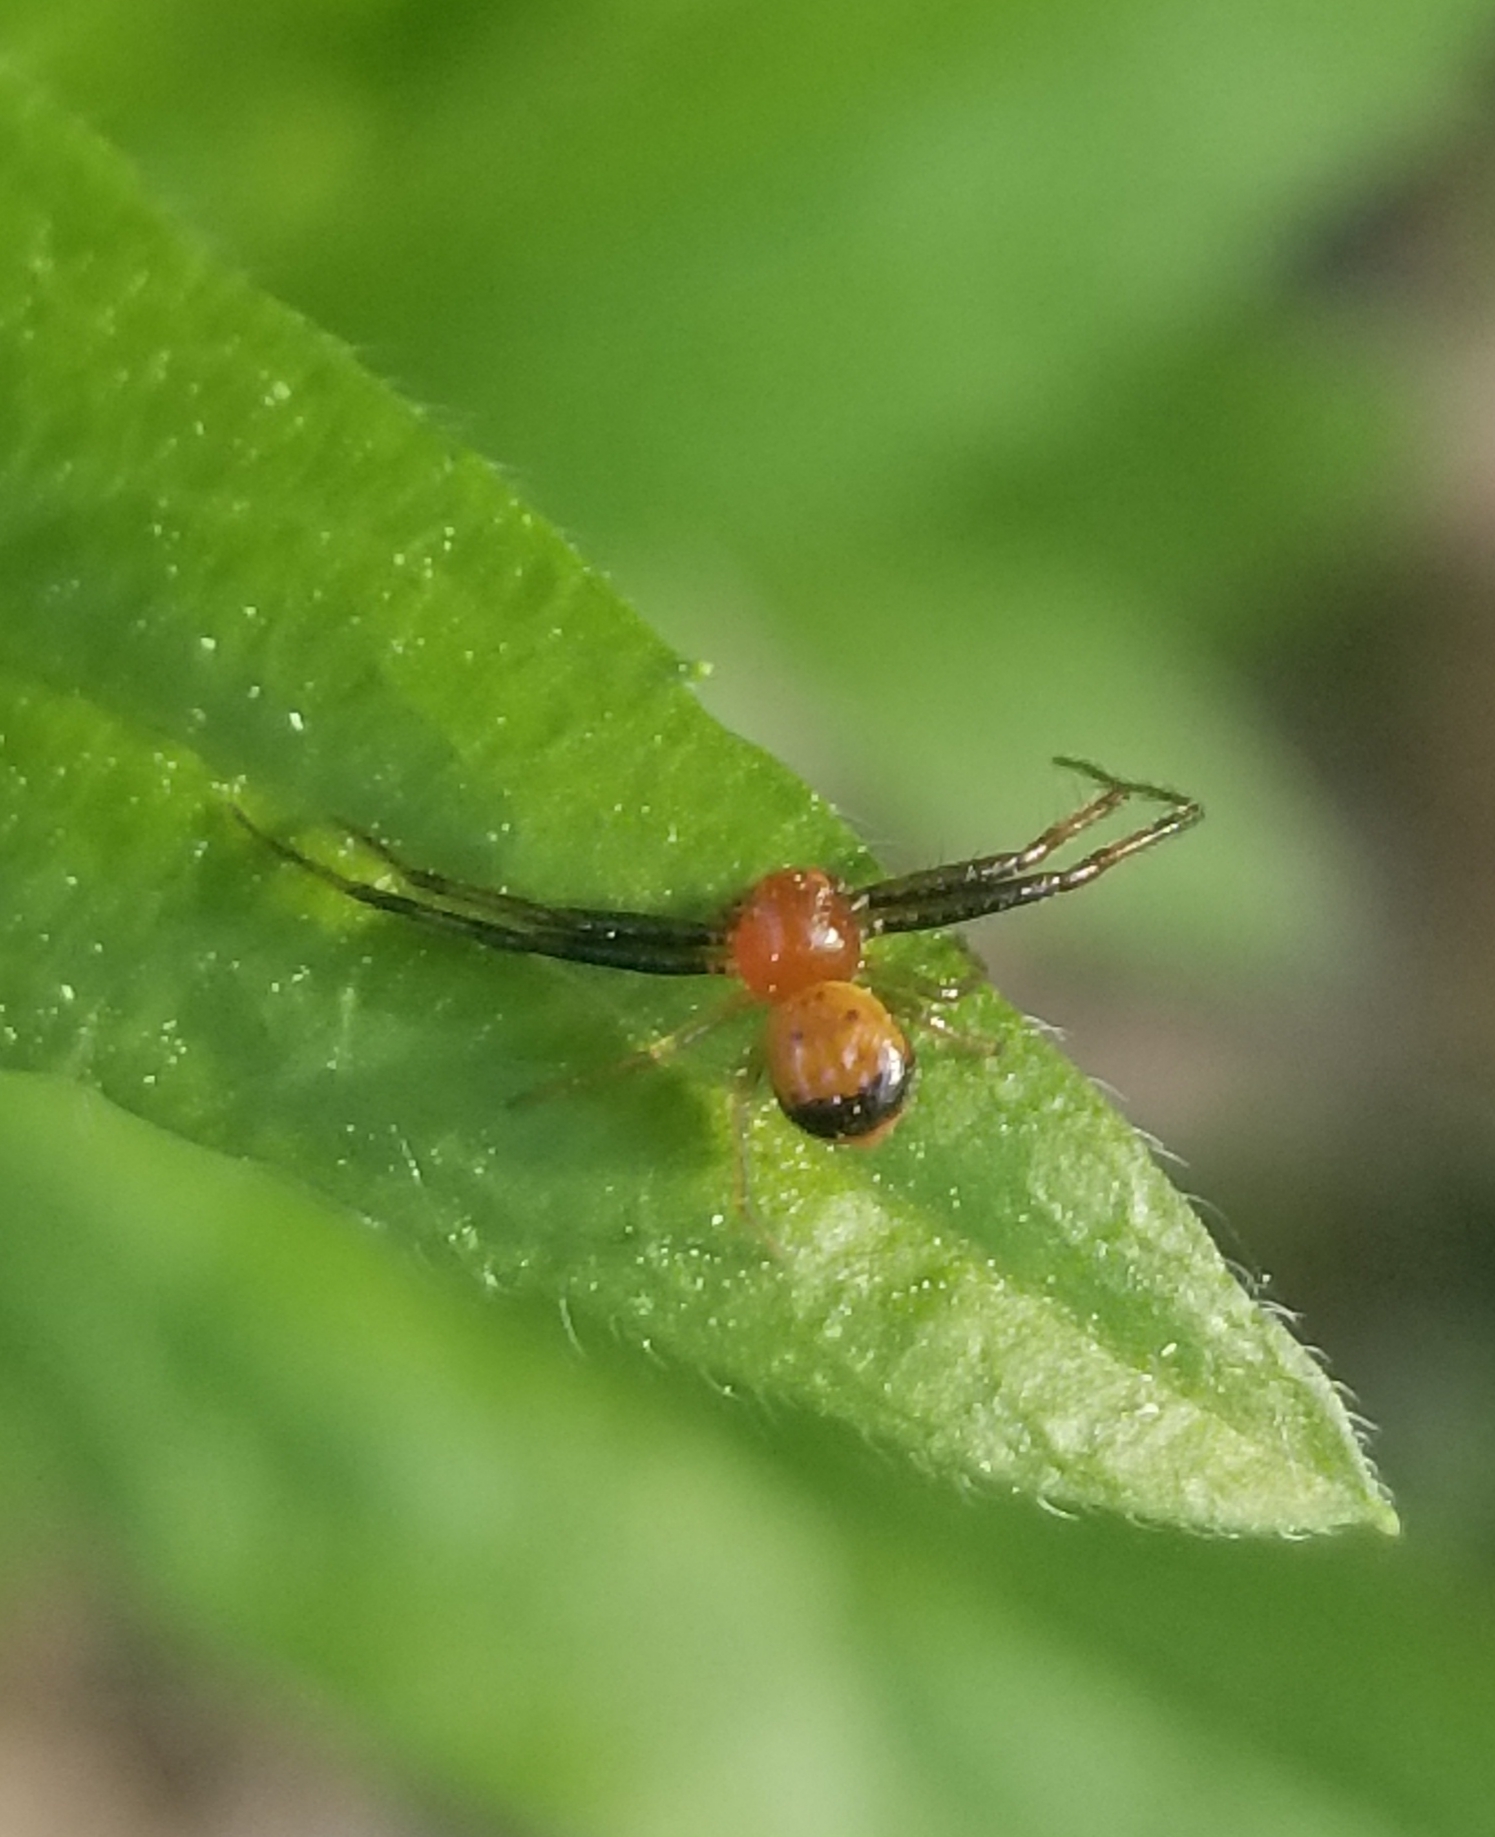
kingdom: Animalia
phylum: Arthropoda
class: Arachnida
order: Araneae
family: Thomisidae
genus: Synema
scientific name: Synema parvulum
